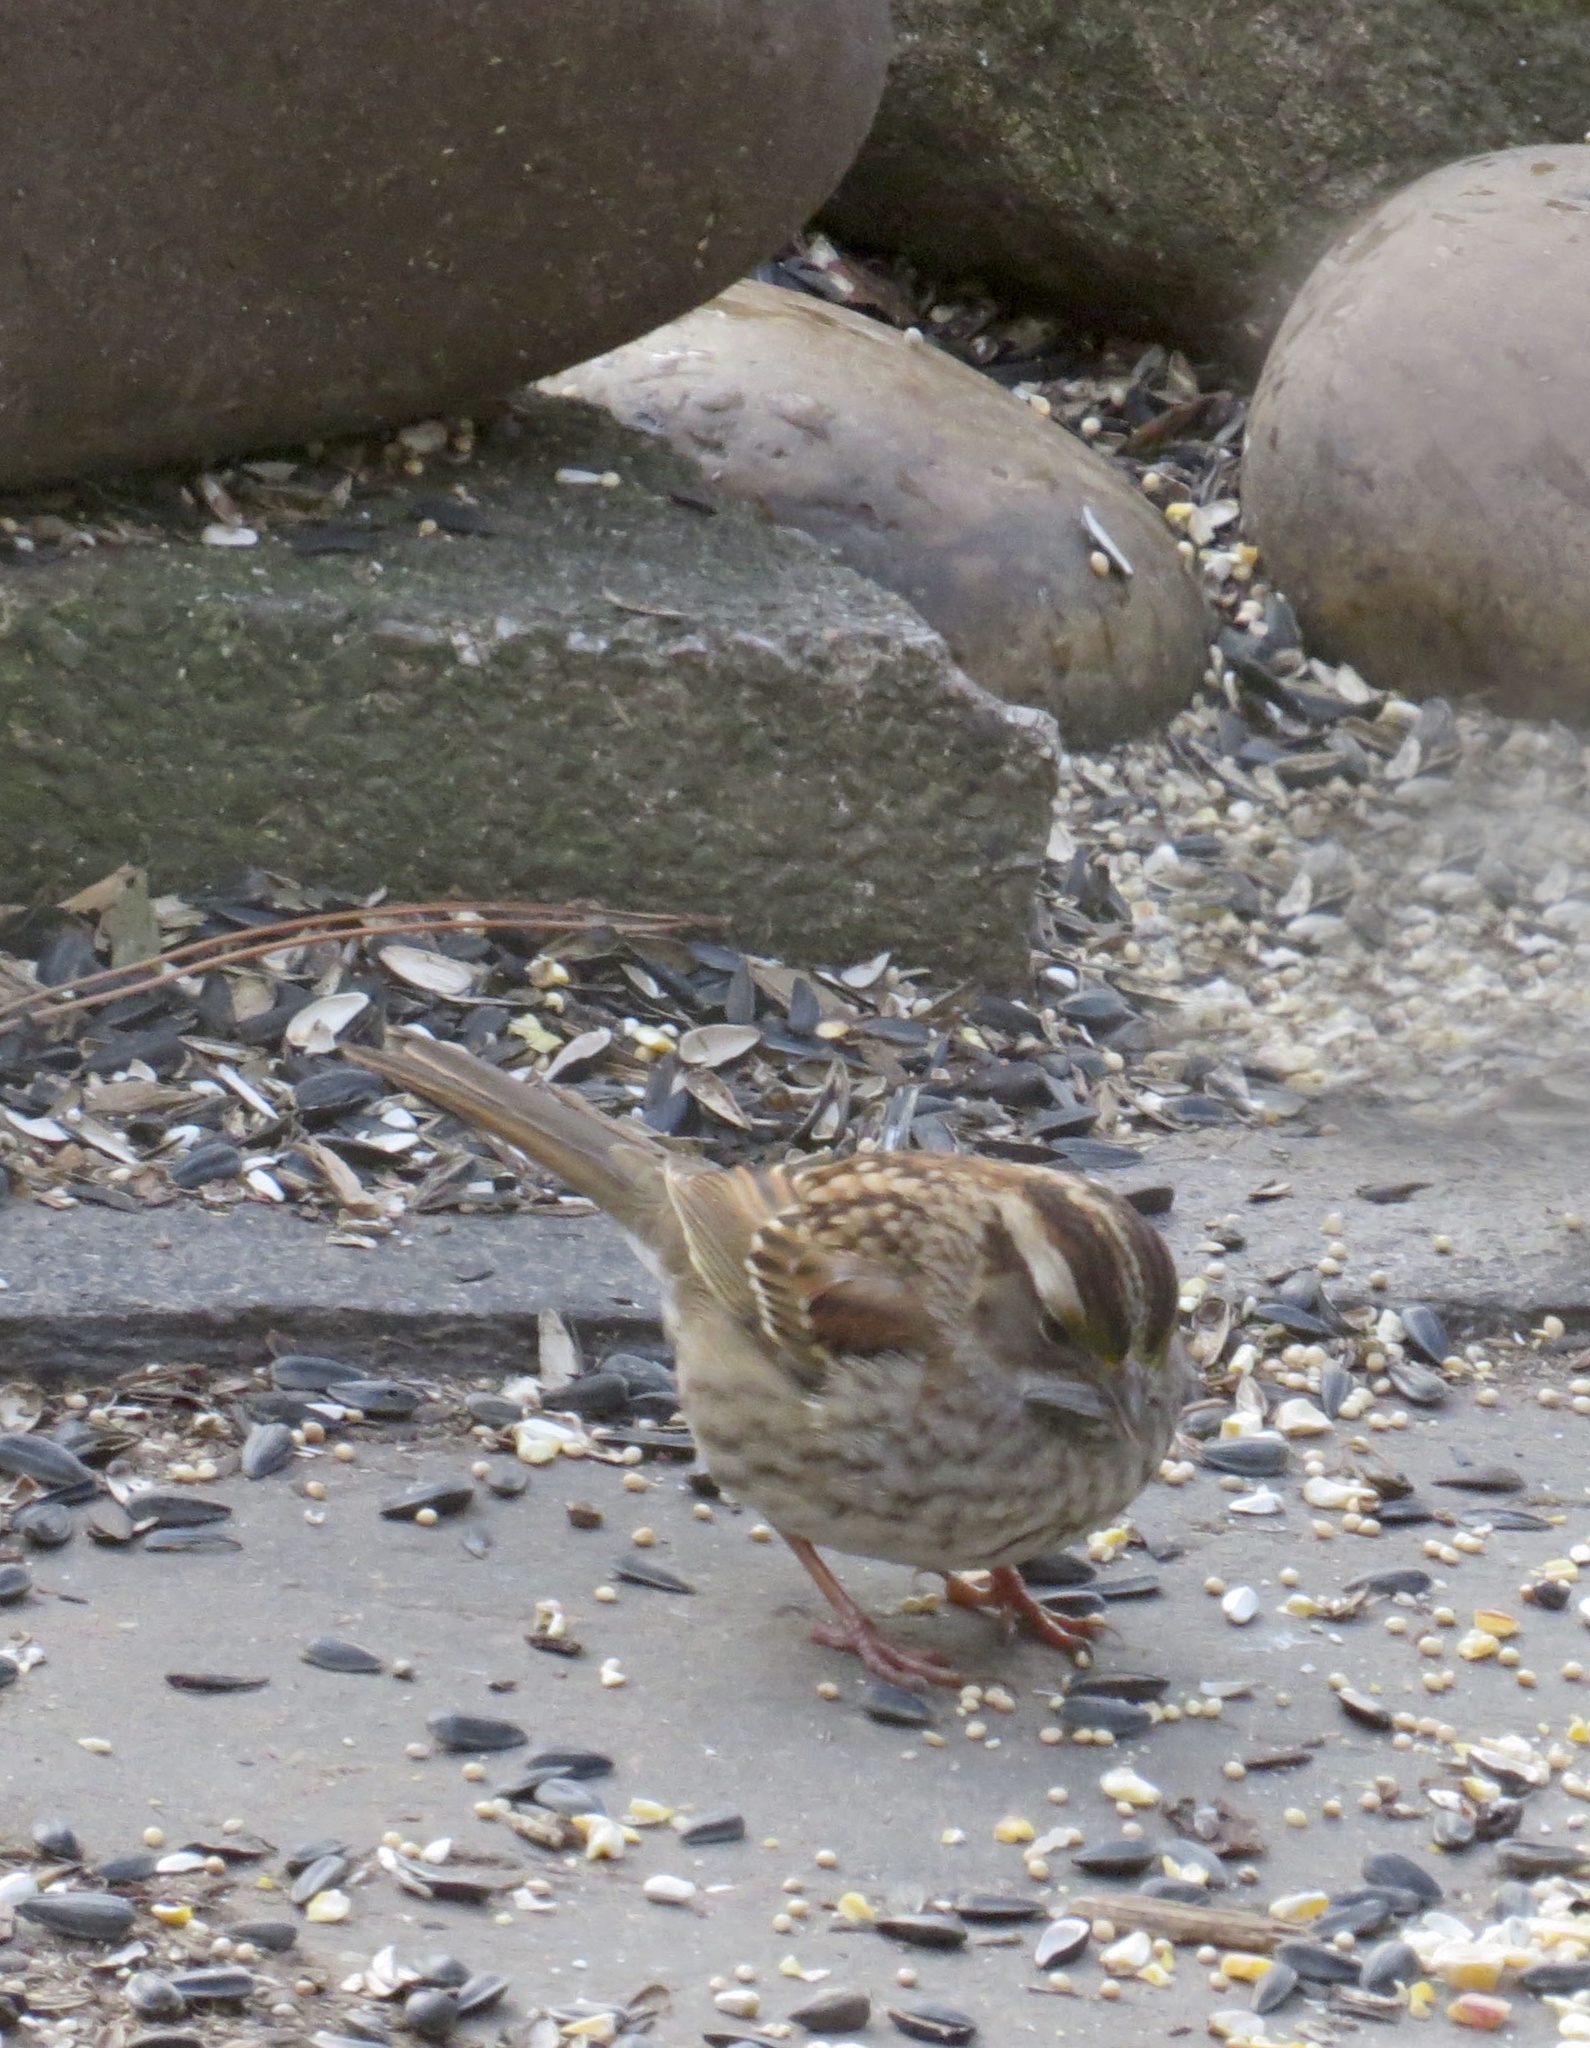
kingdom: Animalia
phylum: Chordata
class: Aves
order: Passeriformes
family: Passerellidae
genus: Zonotrichia
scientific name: Zonotrichia albicollis
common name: White-throated sparrow
